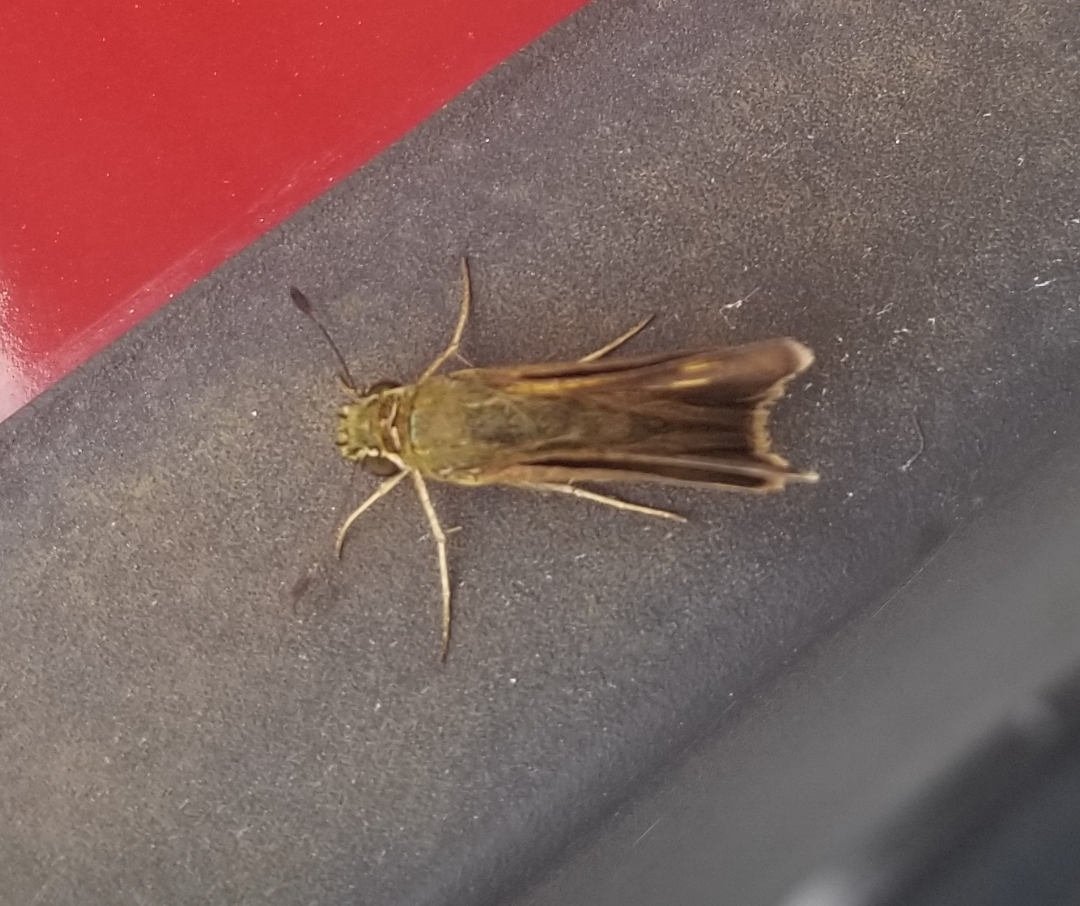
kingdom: Animalia
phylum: Arthropoda
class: Insecta
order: Lepidoptera
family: Hesperiidae
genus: Polites
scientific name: Polites egeremet
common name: Northern broken-dash
